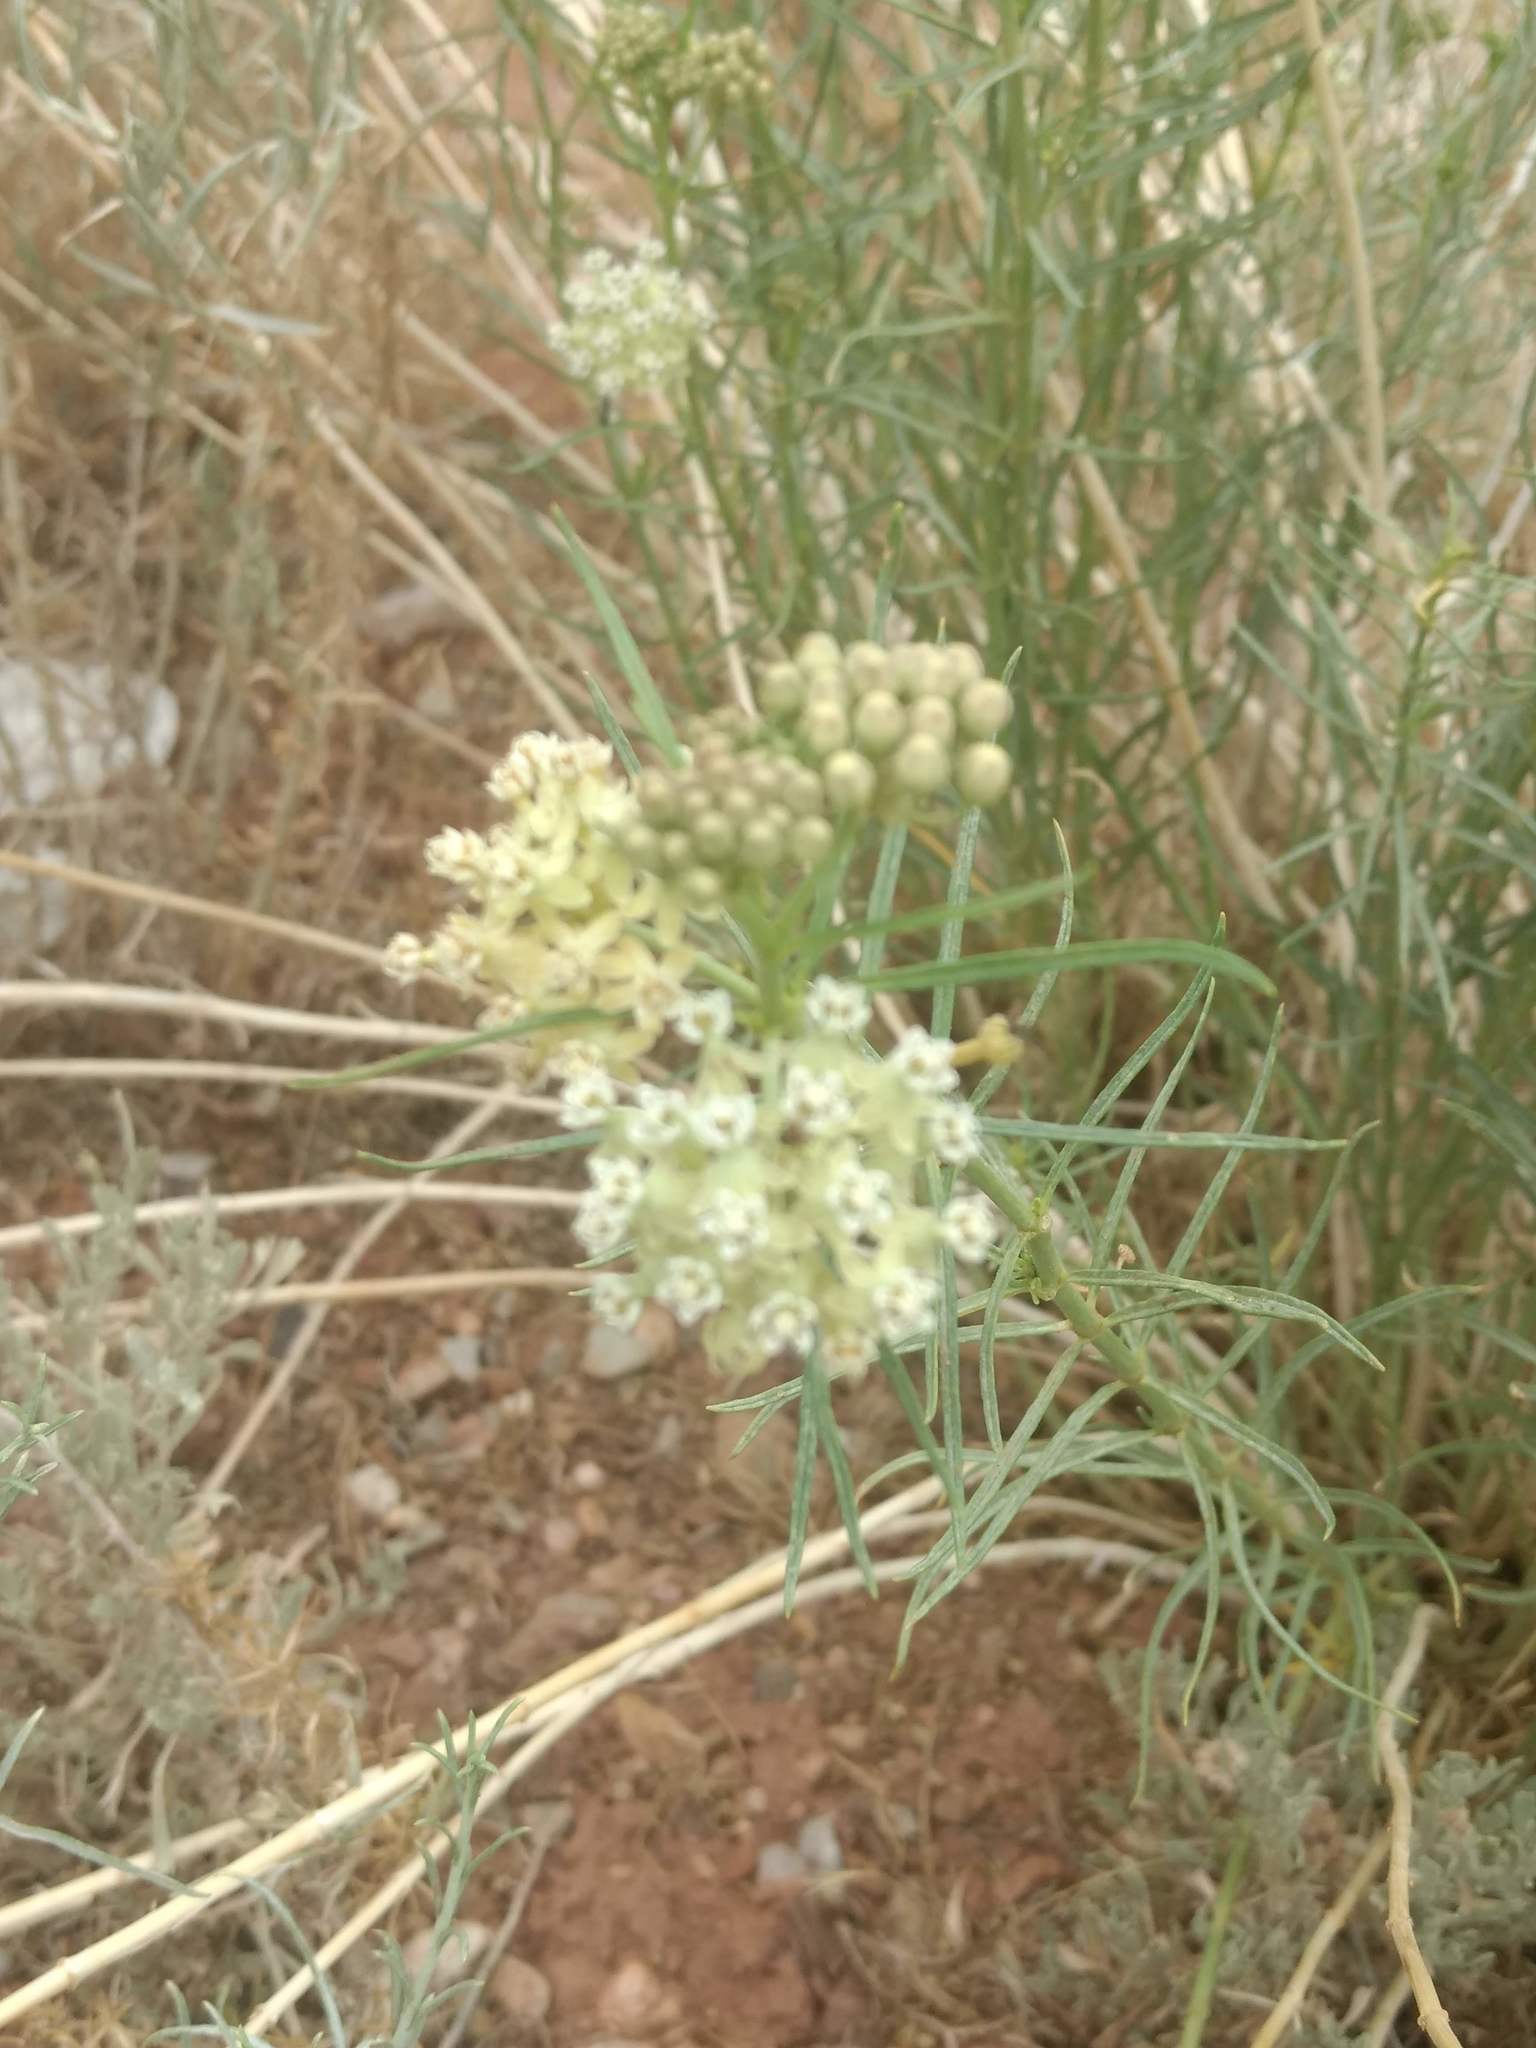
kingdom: Plantae
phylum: Tracheophyta
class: Magnoliopsida
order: Gentianales
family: Apocynaceae
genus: Asclepias
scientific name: Asclepias subverticillata
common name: Horsetail milkweed
